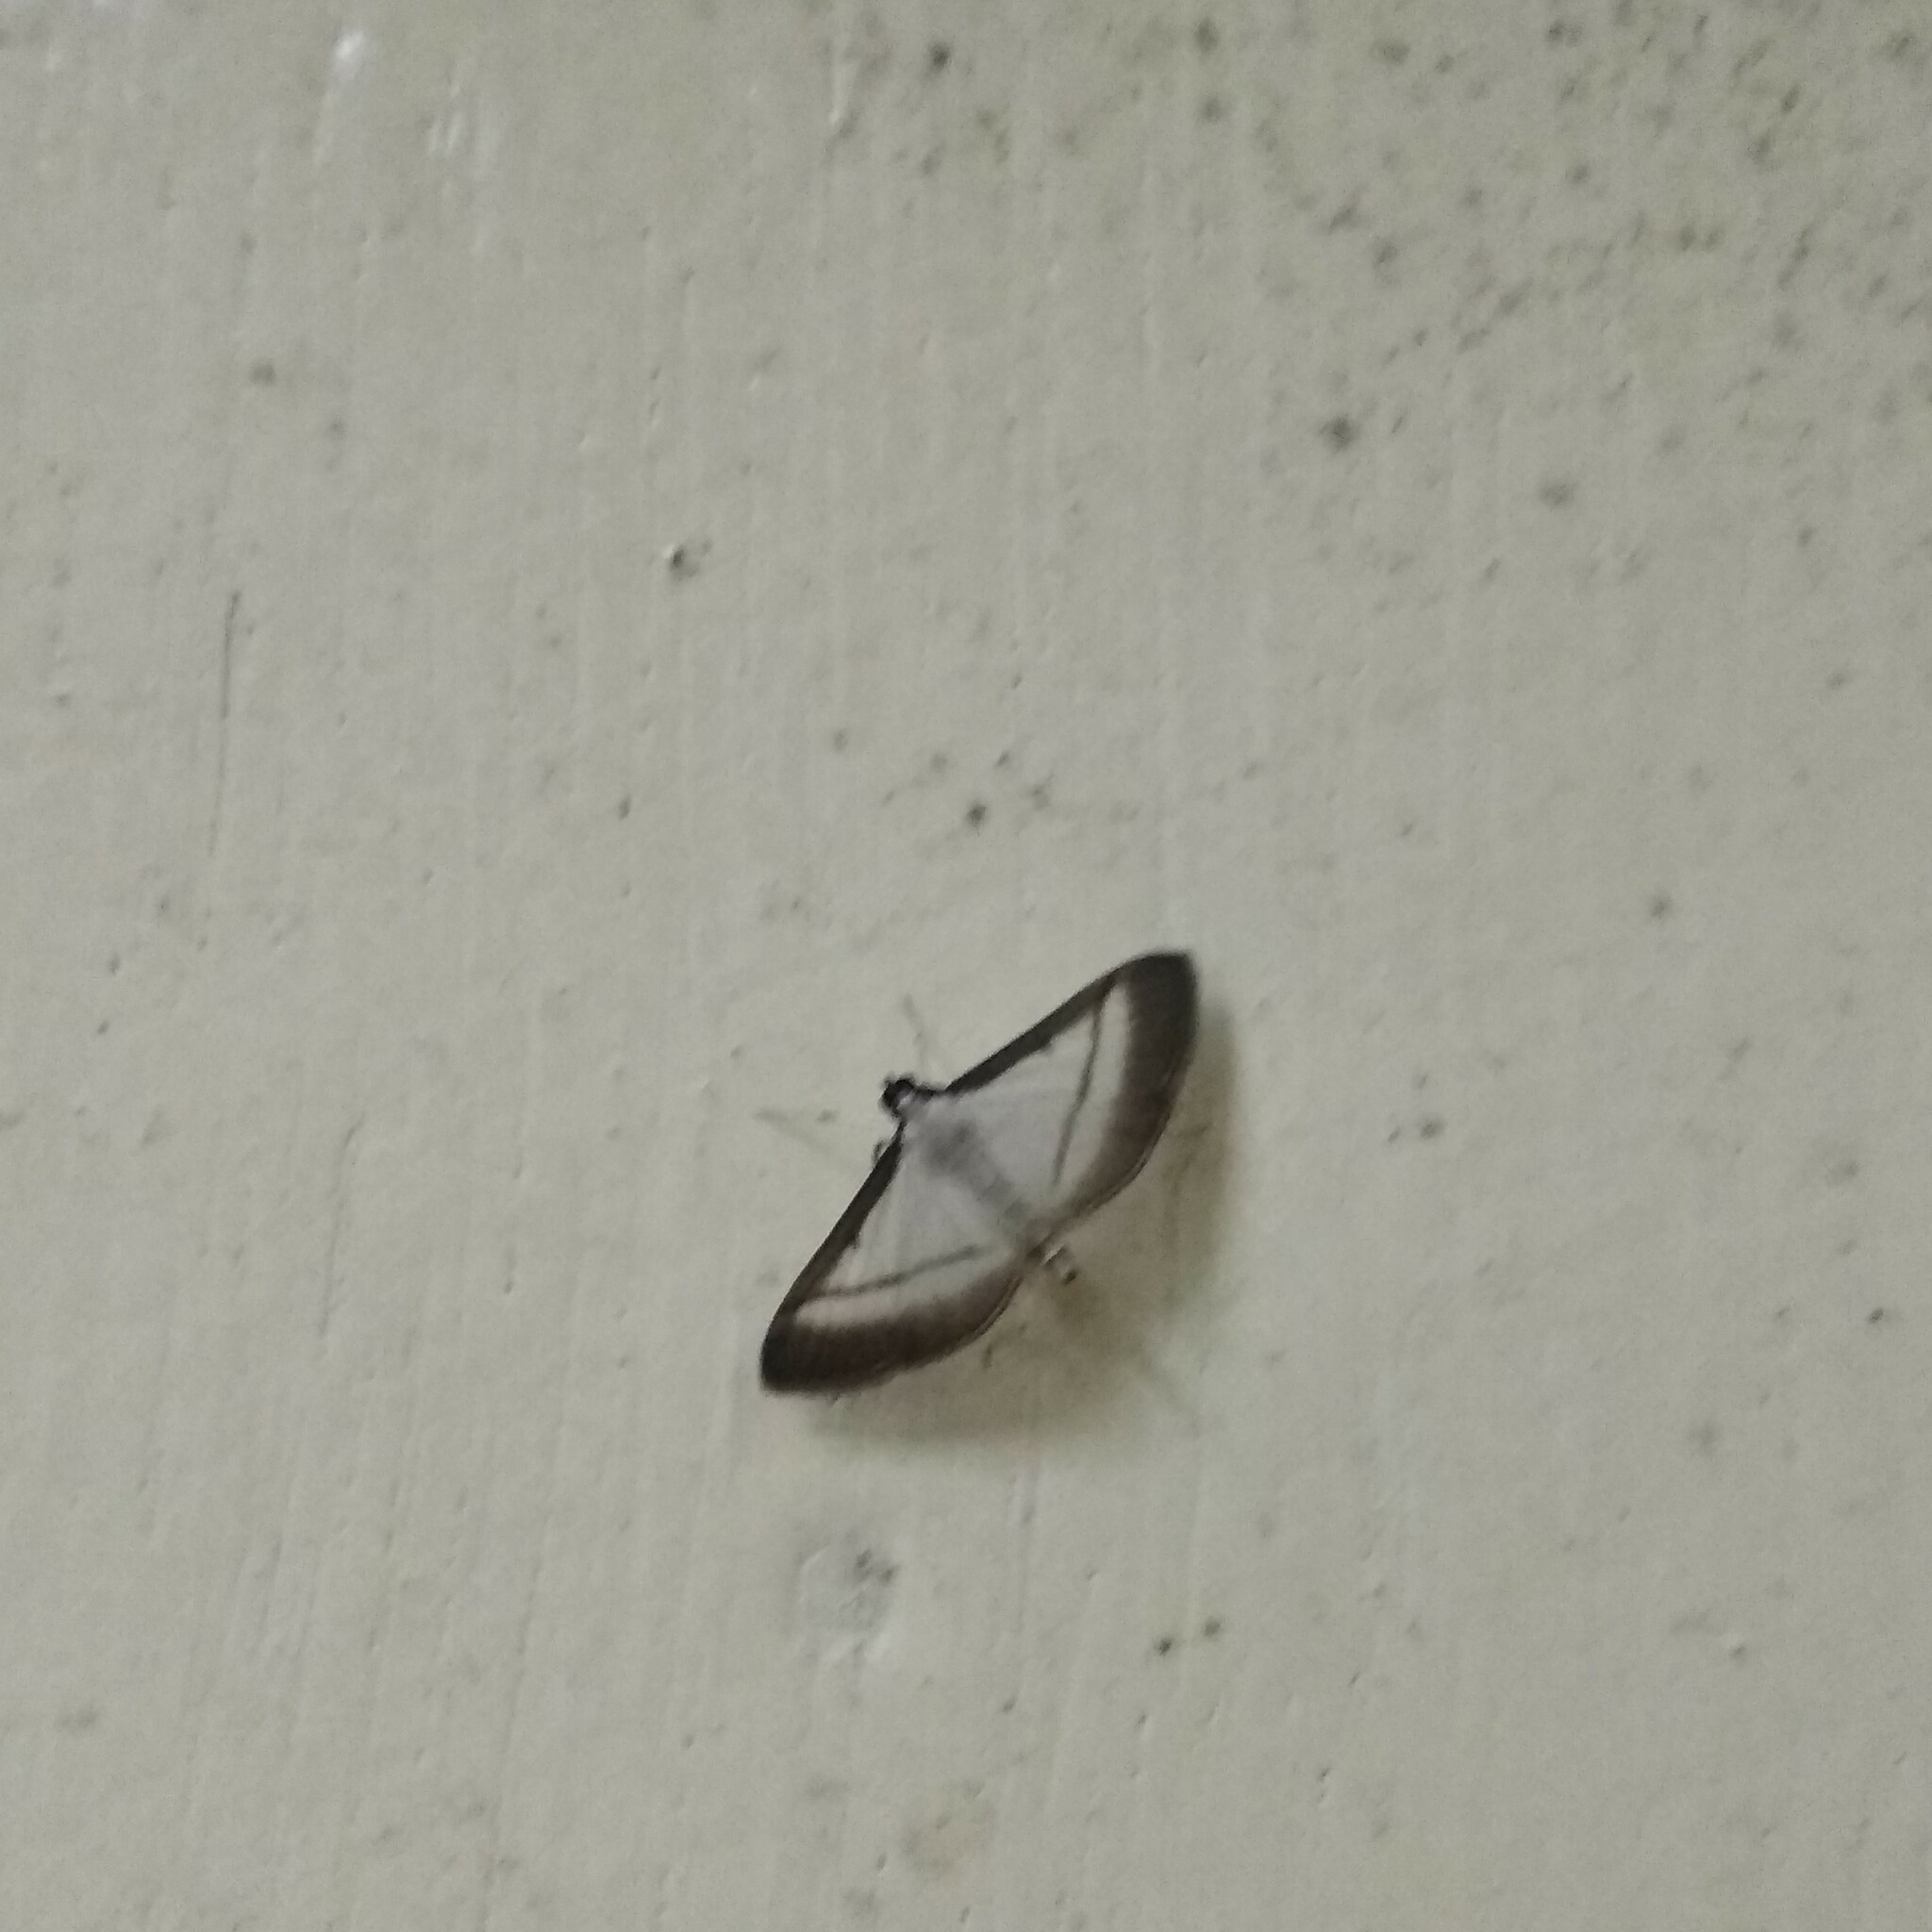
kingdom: Animalia
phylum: Arthropoda
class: Insecta
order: Lepidoptera
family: Crambidae
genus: Bradina
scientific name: Bradina diagonalis
